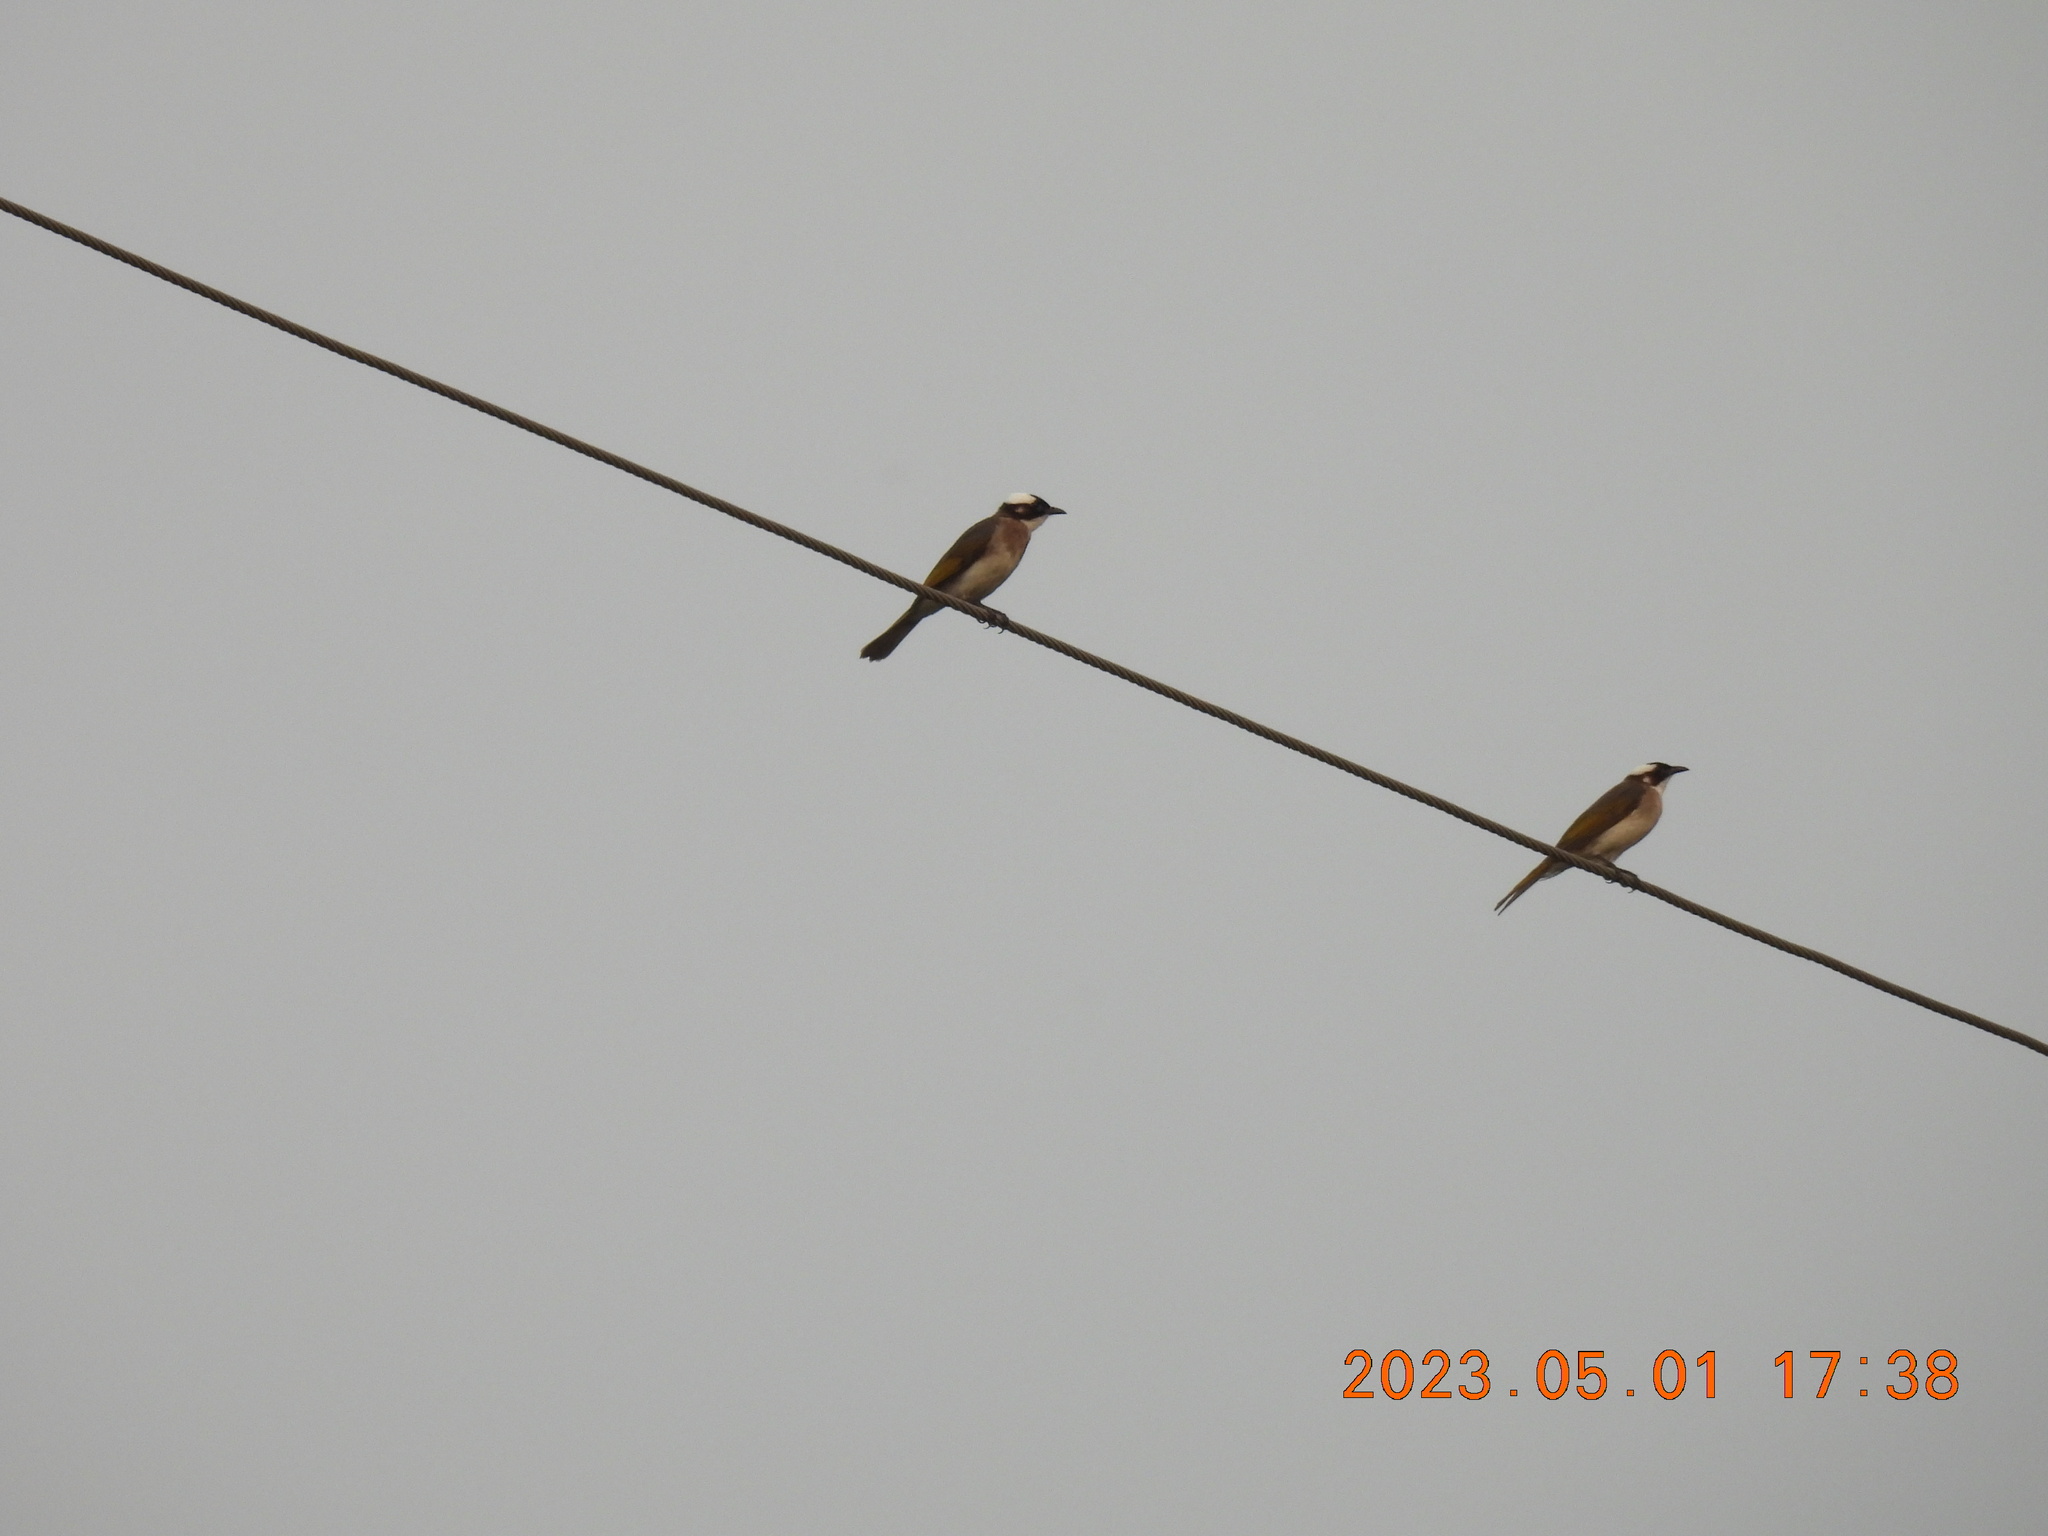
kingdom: Animalia
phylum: Chordata
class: Aves
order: Passeriformes
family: Pycnonotidae
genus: Pycnonotus
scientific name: Pycnonotus sinensis
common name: Light-vented bulbul
